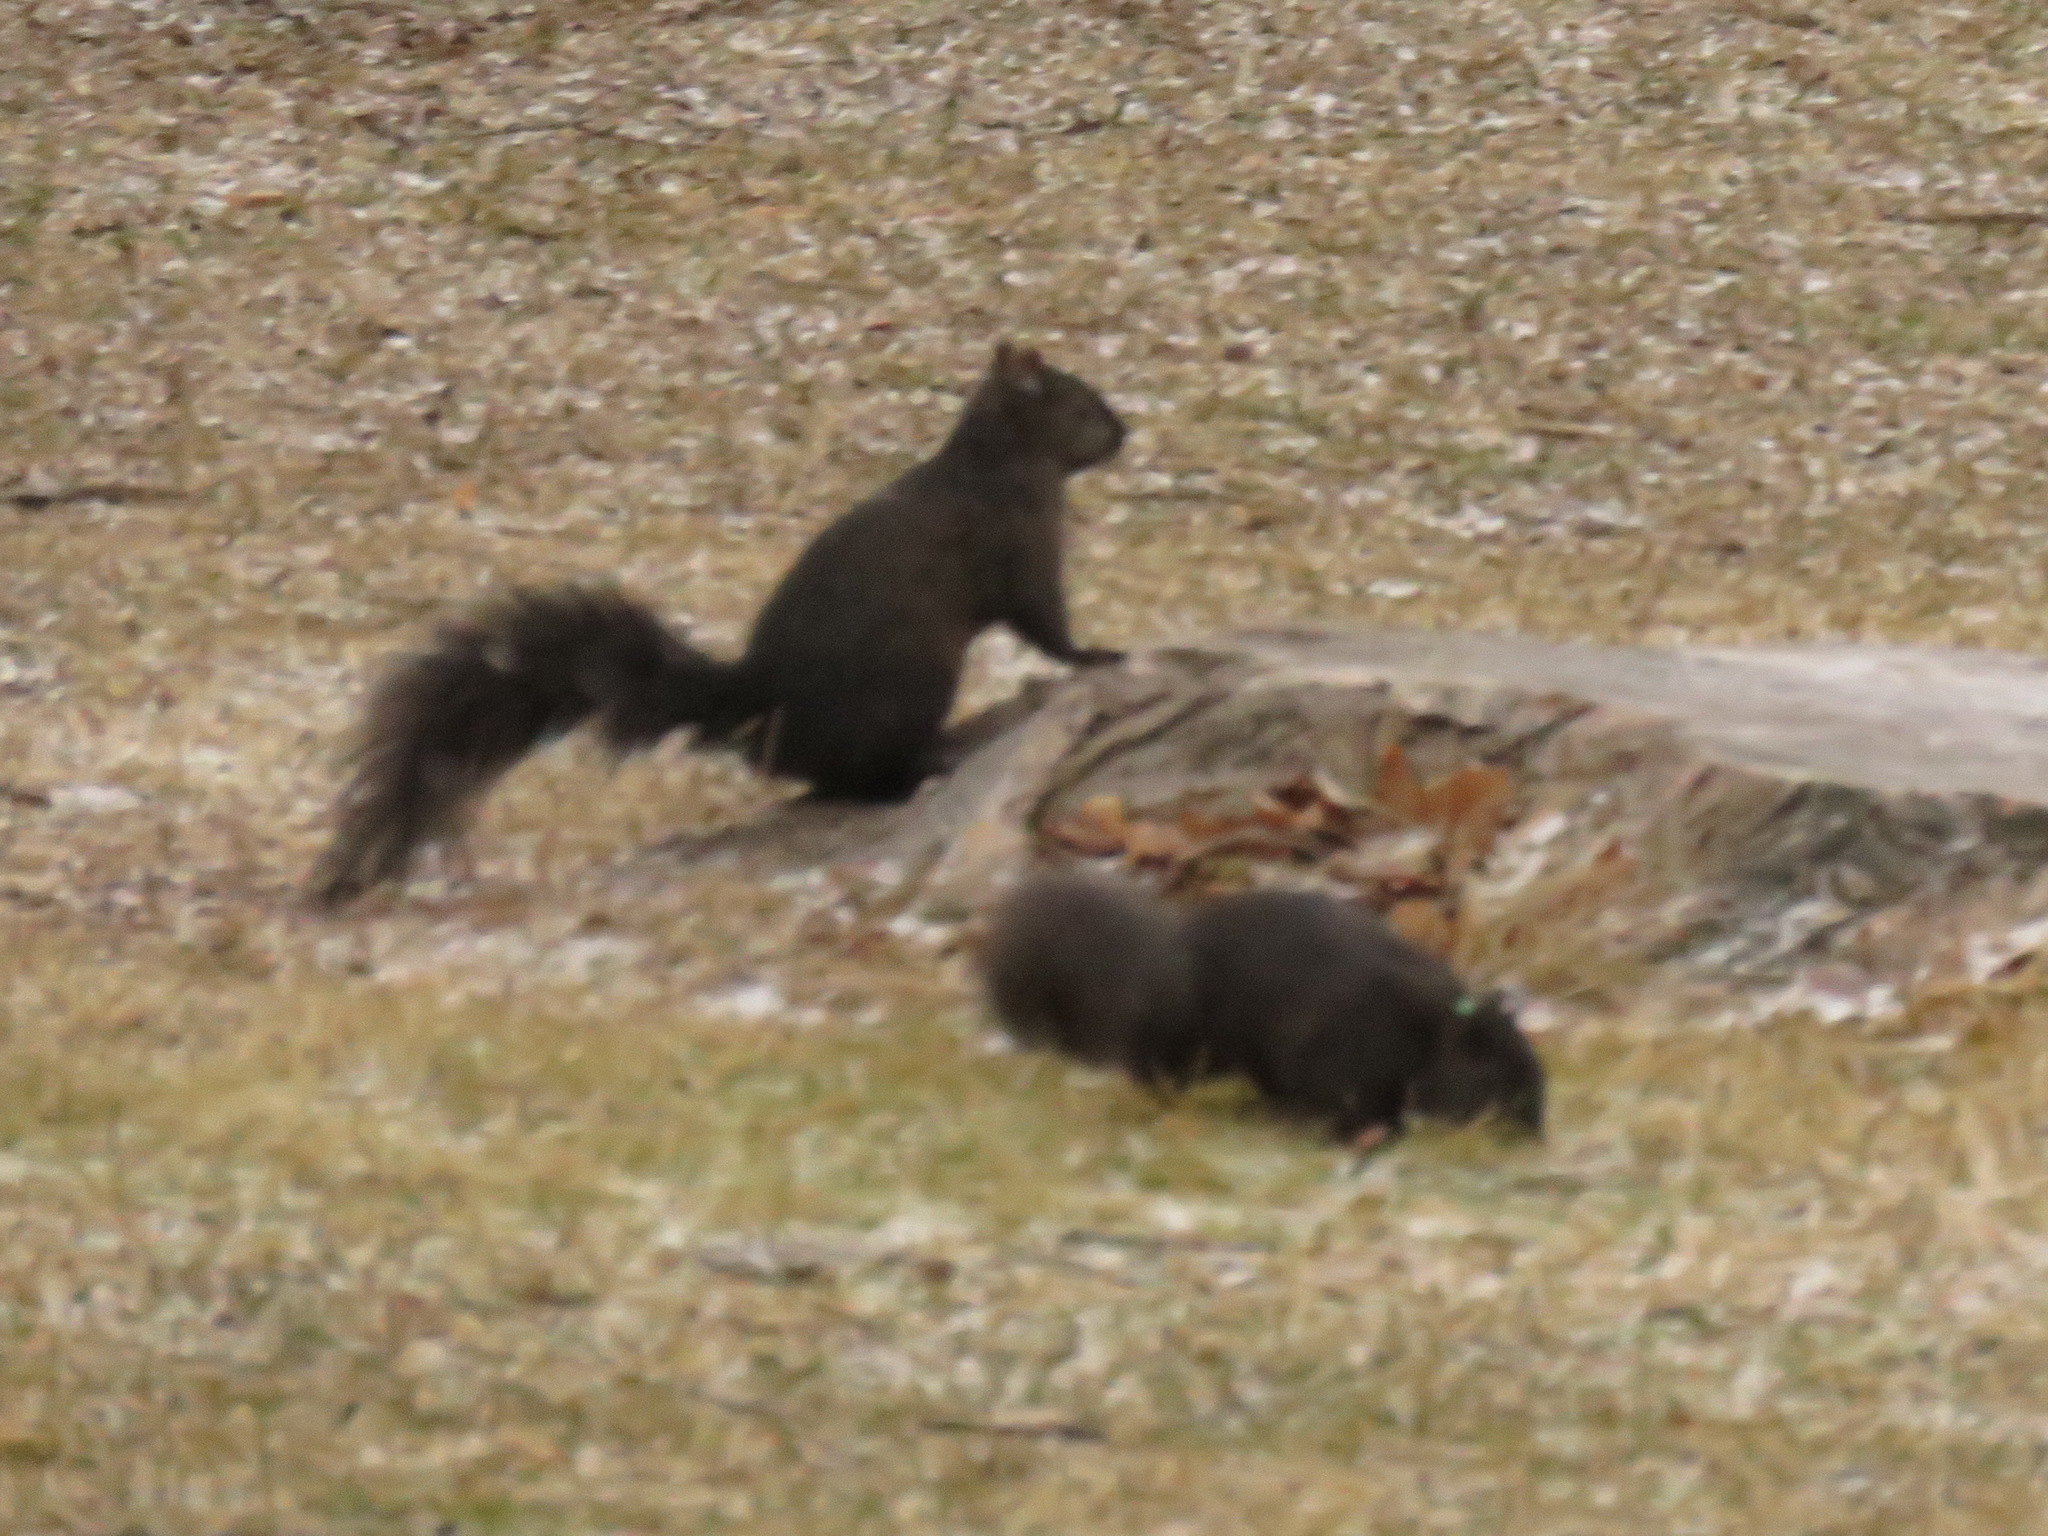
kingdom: Animalia
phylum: Chordata
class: Mammalia
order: Rodentia
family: Sciuridae
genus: Sciurus
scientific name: Sciurus carolinensis
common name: Eastern gray squirrel
